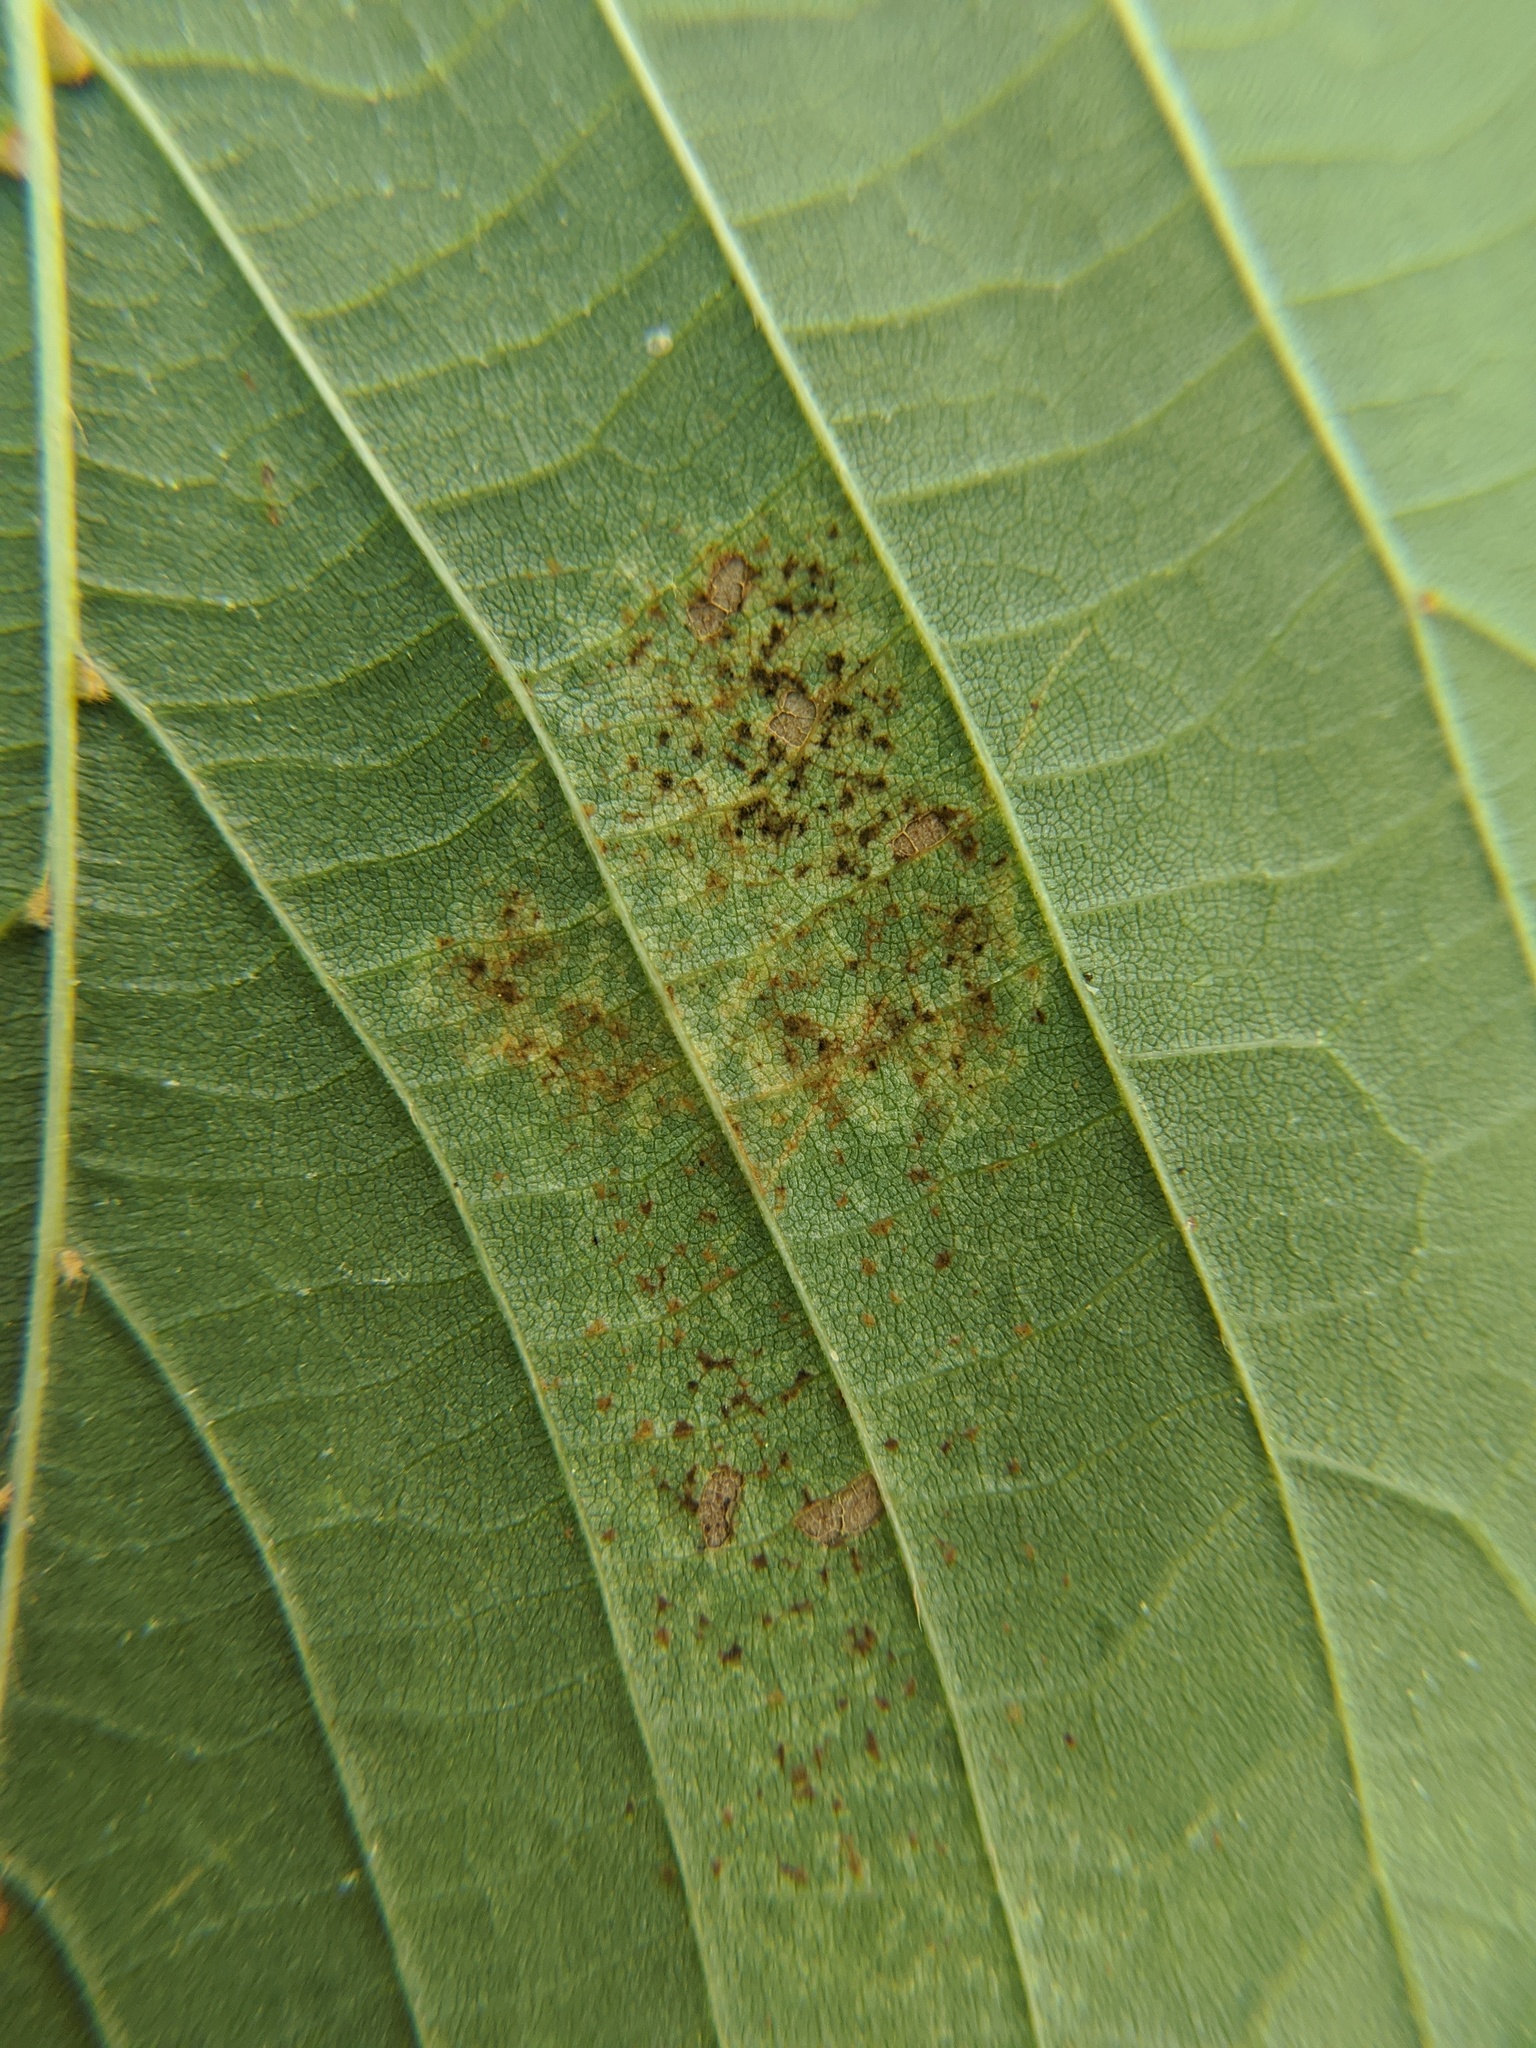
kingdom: Animalia
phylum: Arthropoda
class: Insecta
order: Hemiptera
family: Tingidae
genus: Gargaphia
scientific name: Gargaphia tiliae
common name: Basswood lace bug
